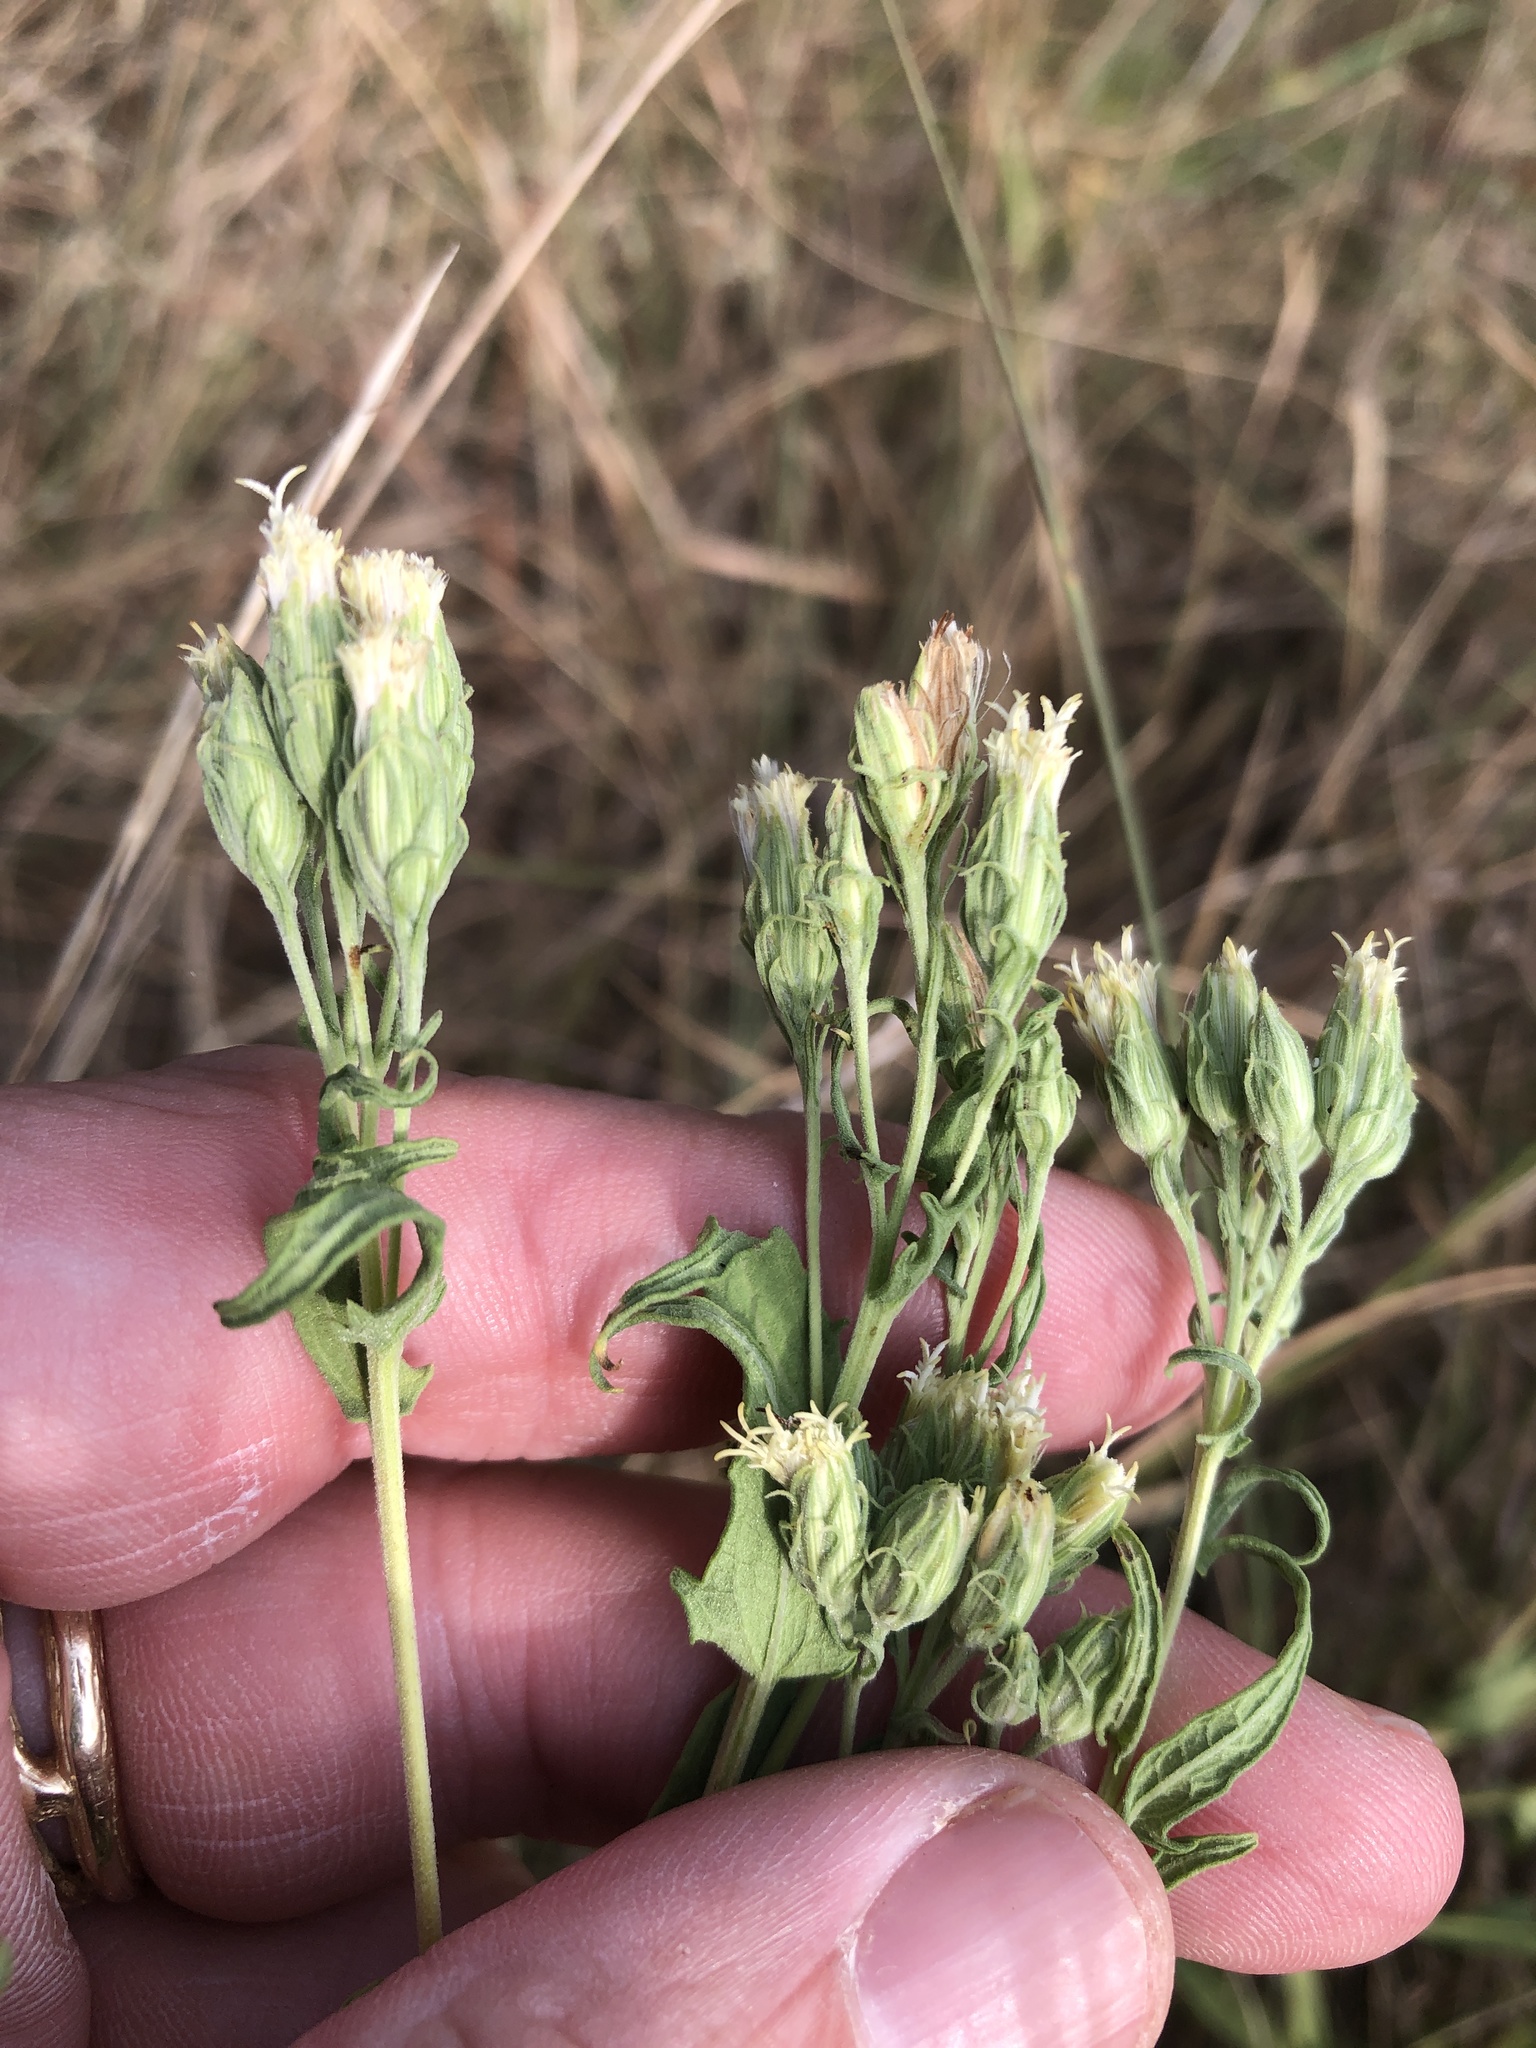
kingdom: Plantae
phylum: Tracheophyta
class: Magnoliopsida
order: Asterales
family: Asteraceae
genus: Brickellia
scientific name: Brickellia eupatorioides
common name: False boneset
